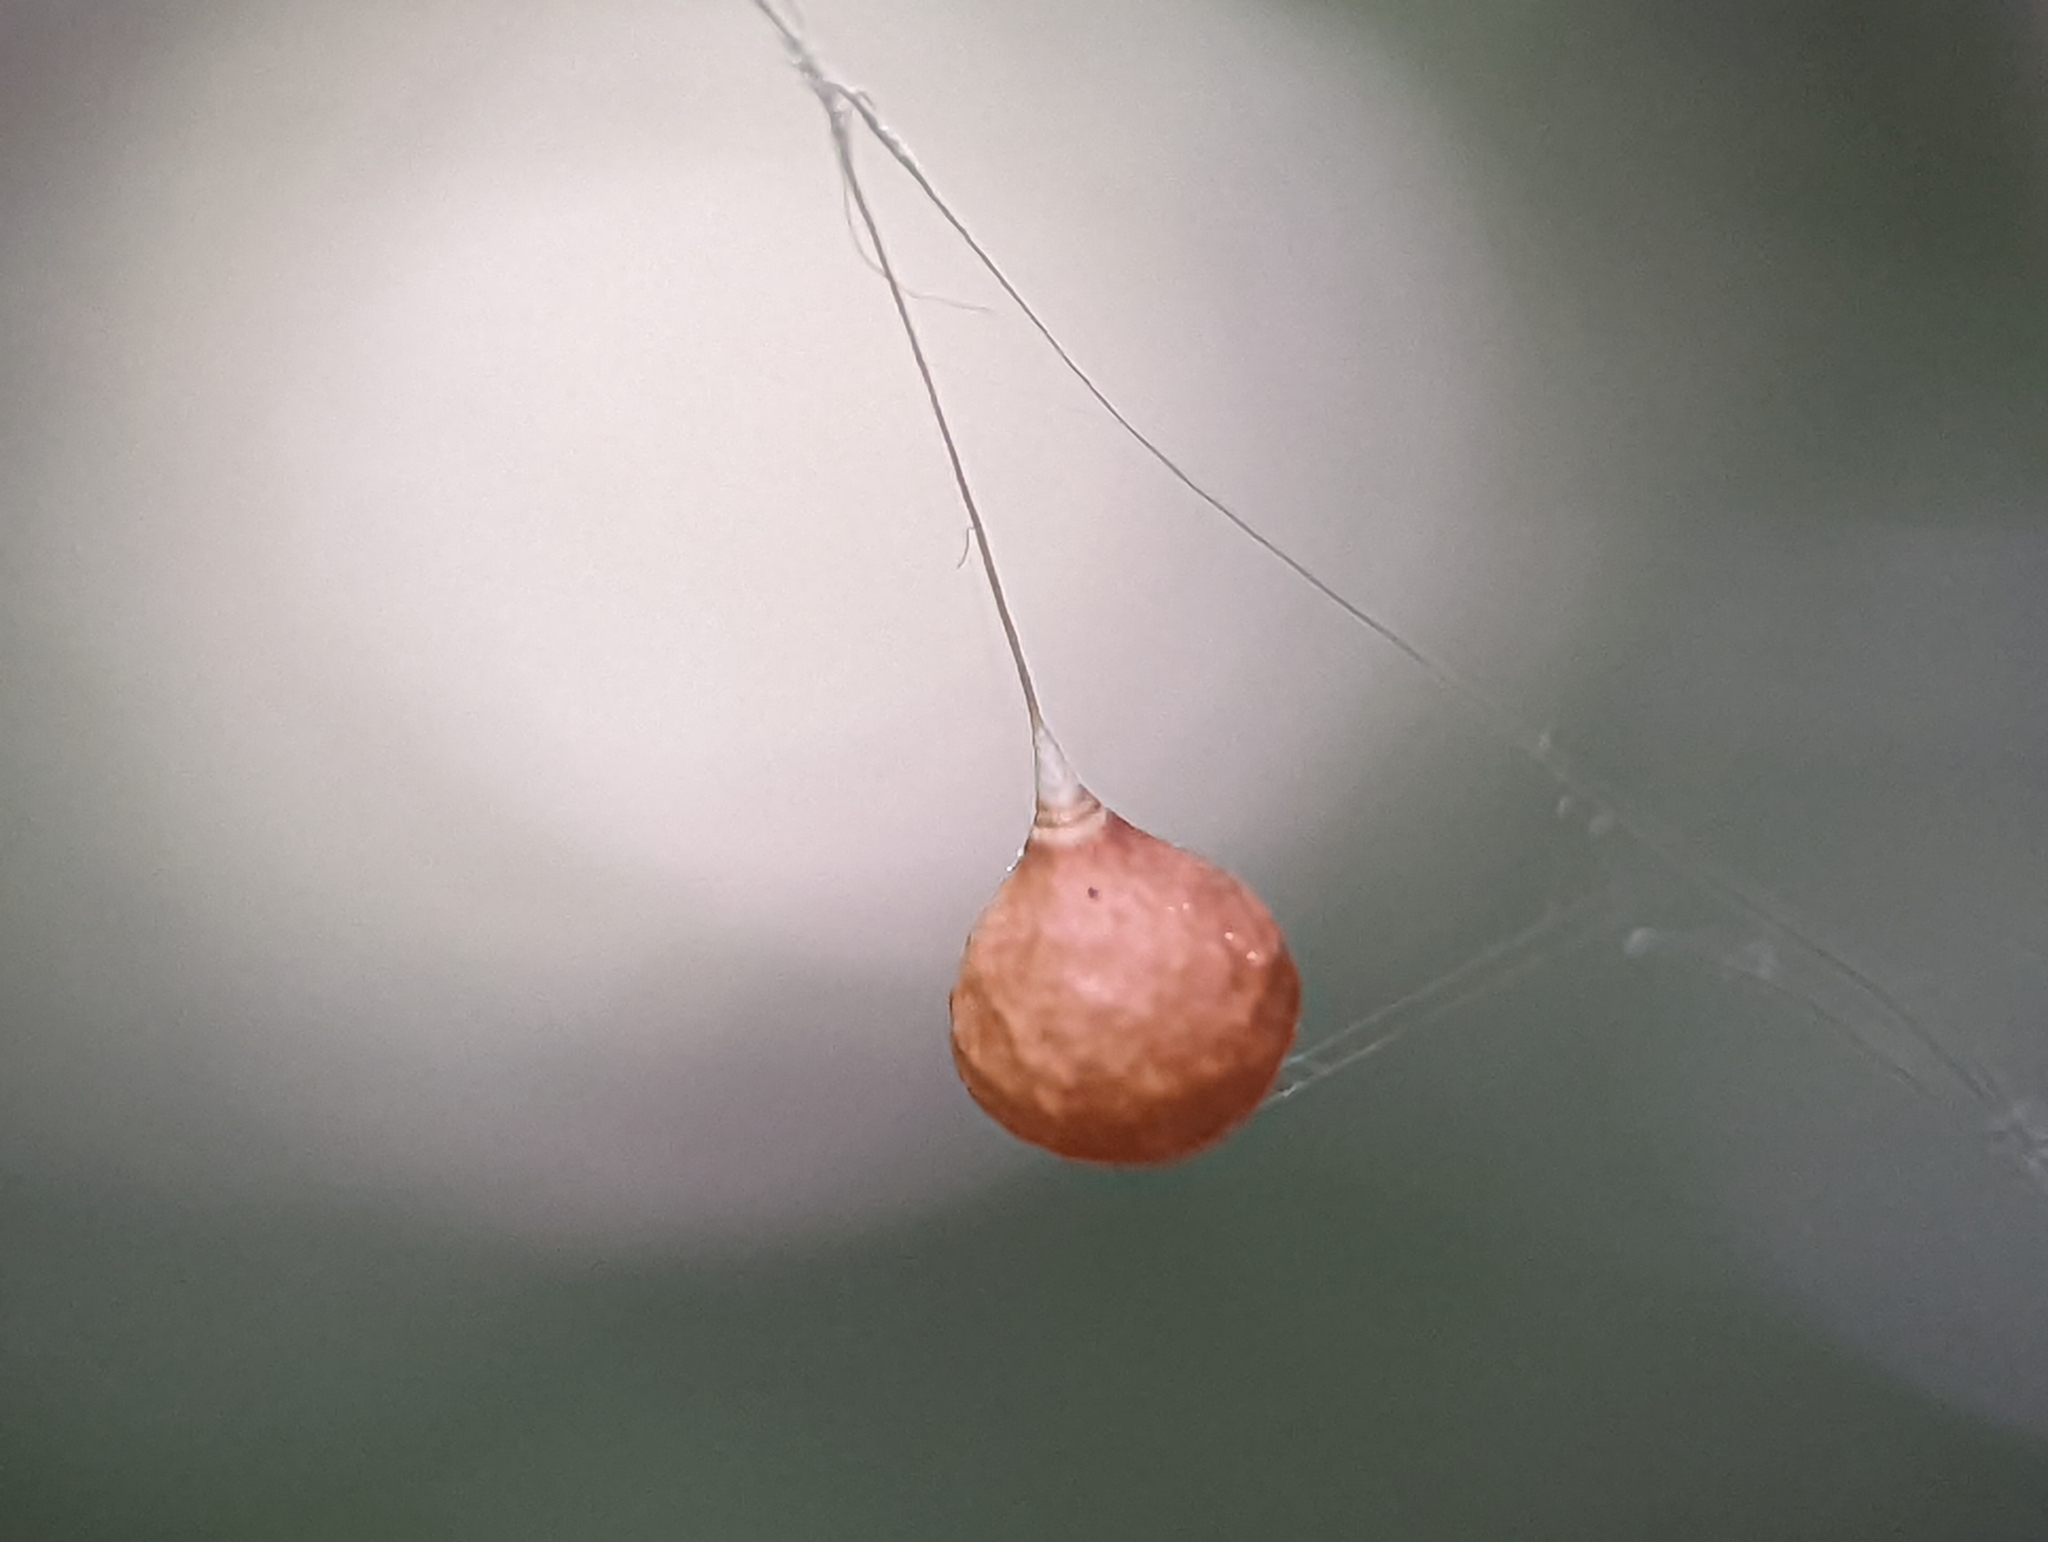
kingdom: Animalia
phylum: Arthropoda
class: Arachnida
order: Araneae
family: Theridiosomatidae
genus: Theridiosoma
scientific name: Theridiosoma gemmosum
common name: Ray spider
